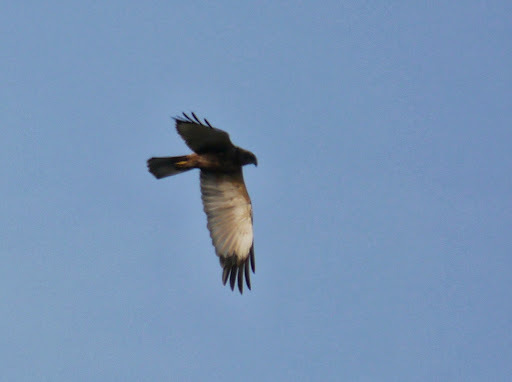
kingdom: Animalia
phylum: Chordata
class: Aves
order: Accipitriformes
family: Accipitridae
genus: Circus
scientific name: Circus aeruginosus
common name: Western marsh harrier
